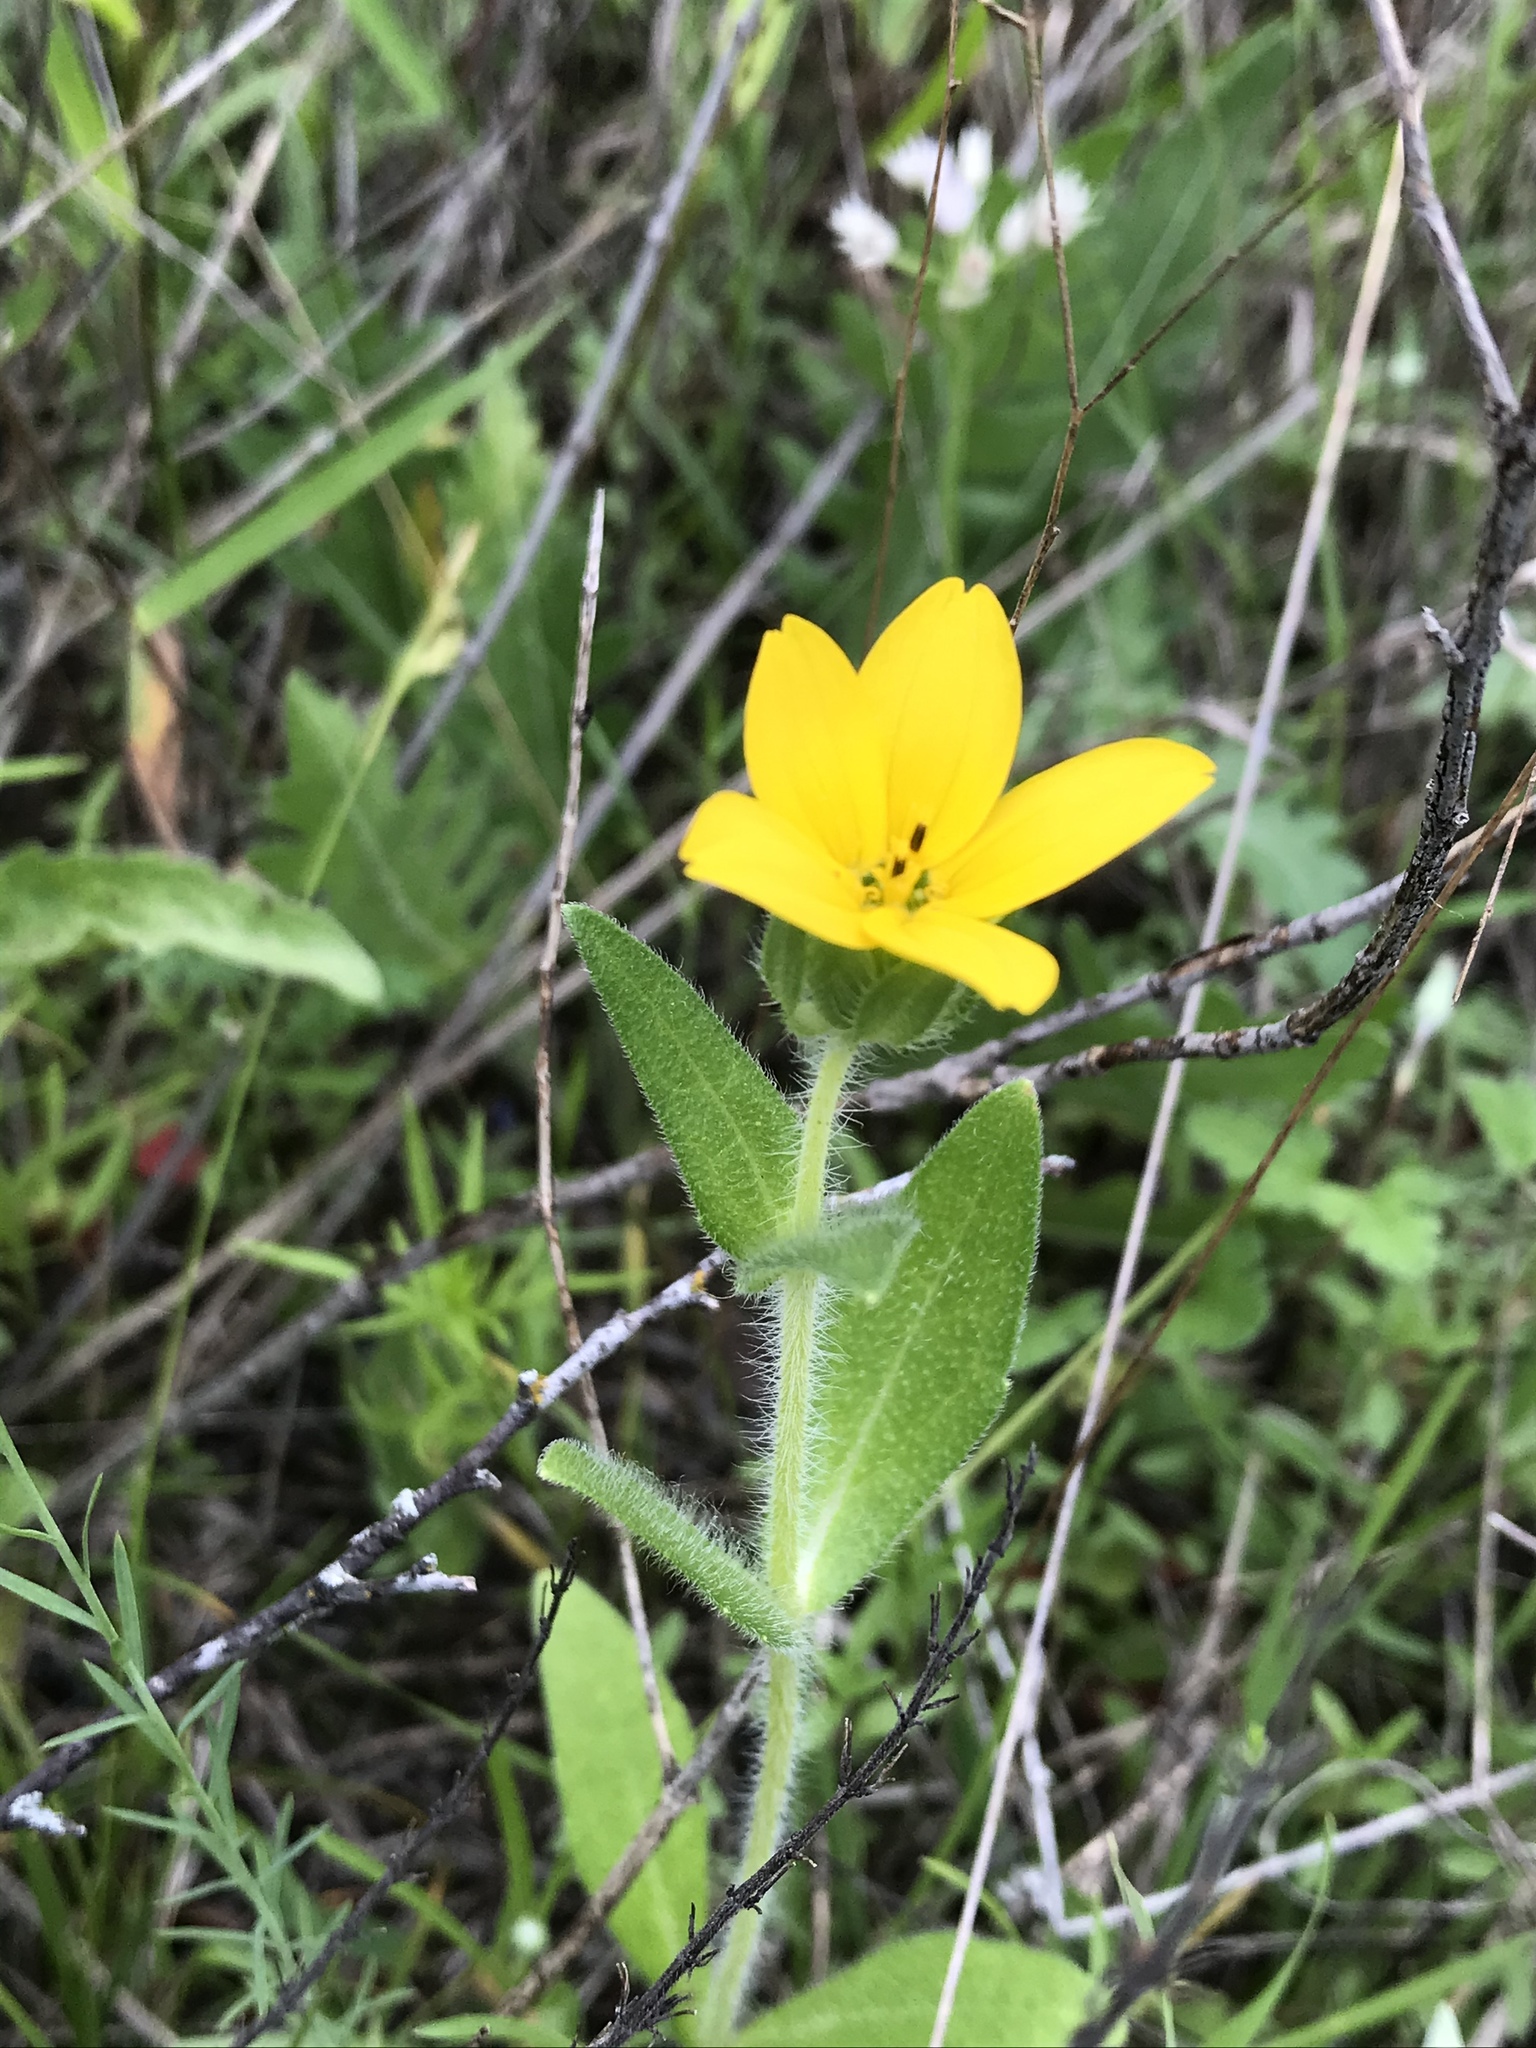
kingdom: Plantae
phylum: Tracheophyta
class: Magnoliopsida
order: Asterales
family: Asteraceae
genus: Lindheimera
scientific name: Lindheimera texana
